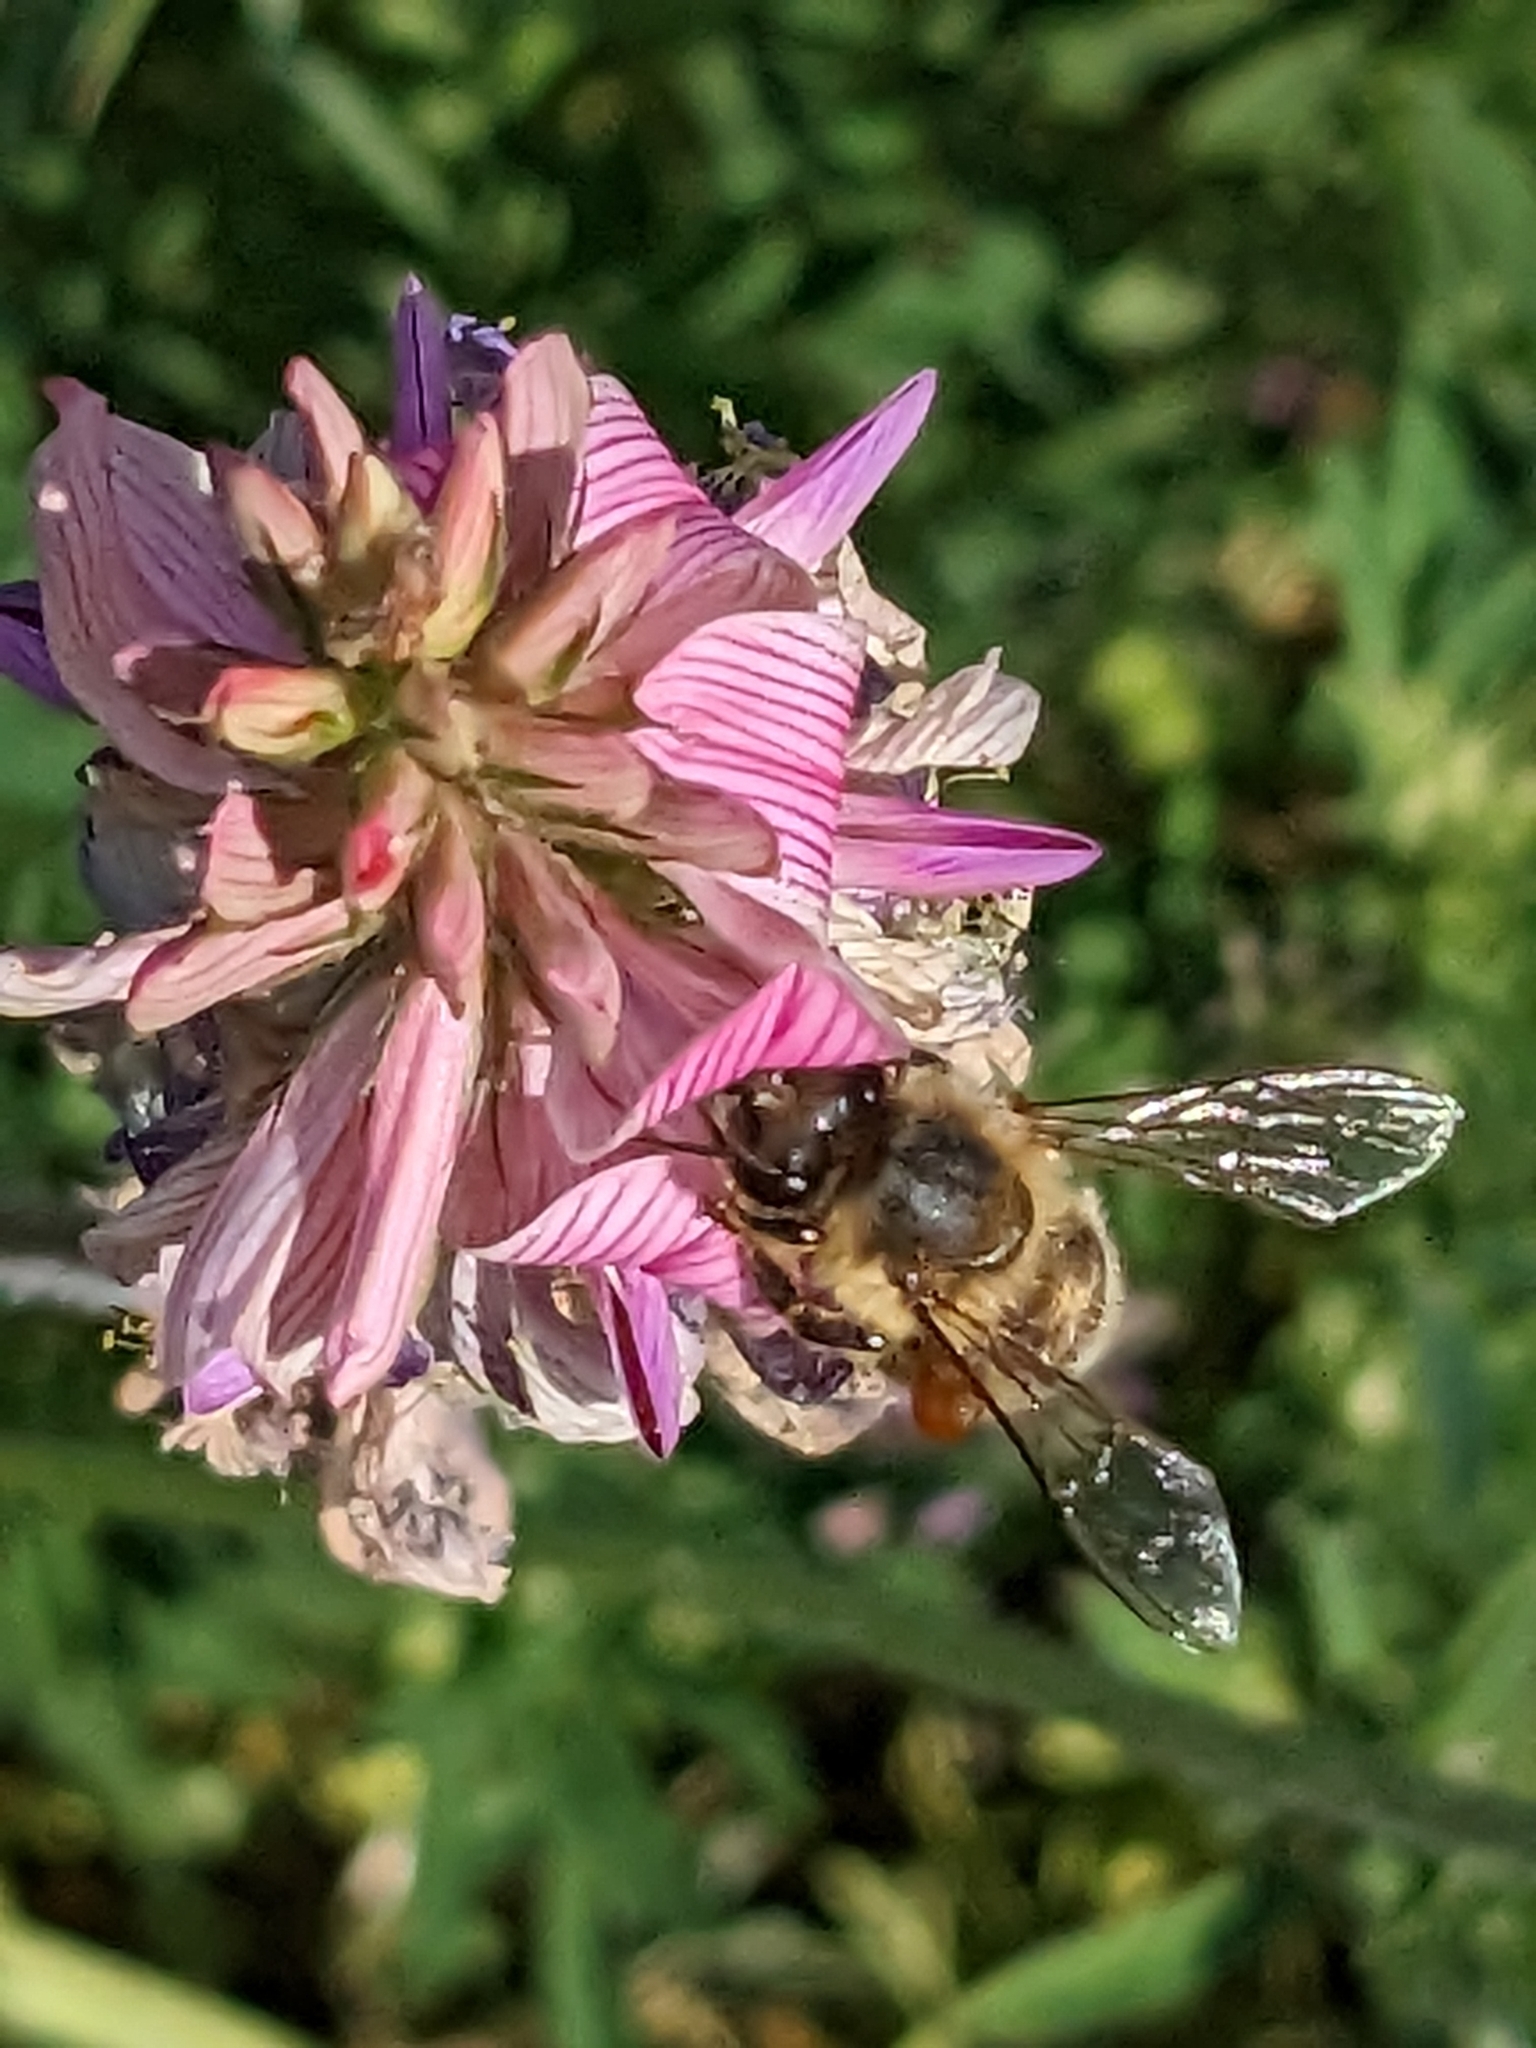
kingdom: Animalia
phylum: Arthropoda
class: Insecta
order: Hymenoptera
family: Apidae
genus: Apis
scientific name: Apis mellifera
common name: Honey bee
